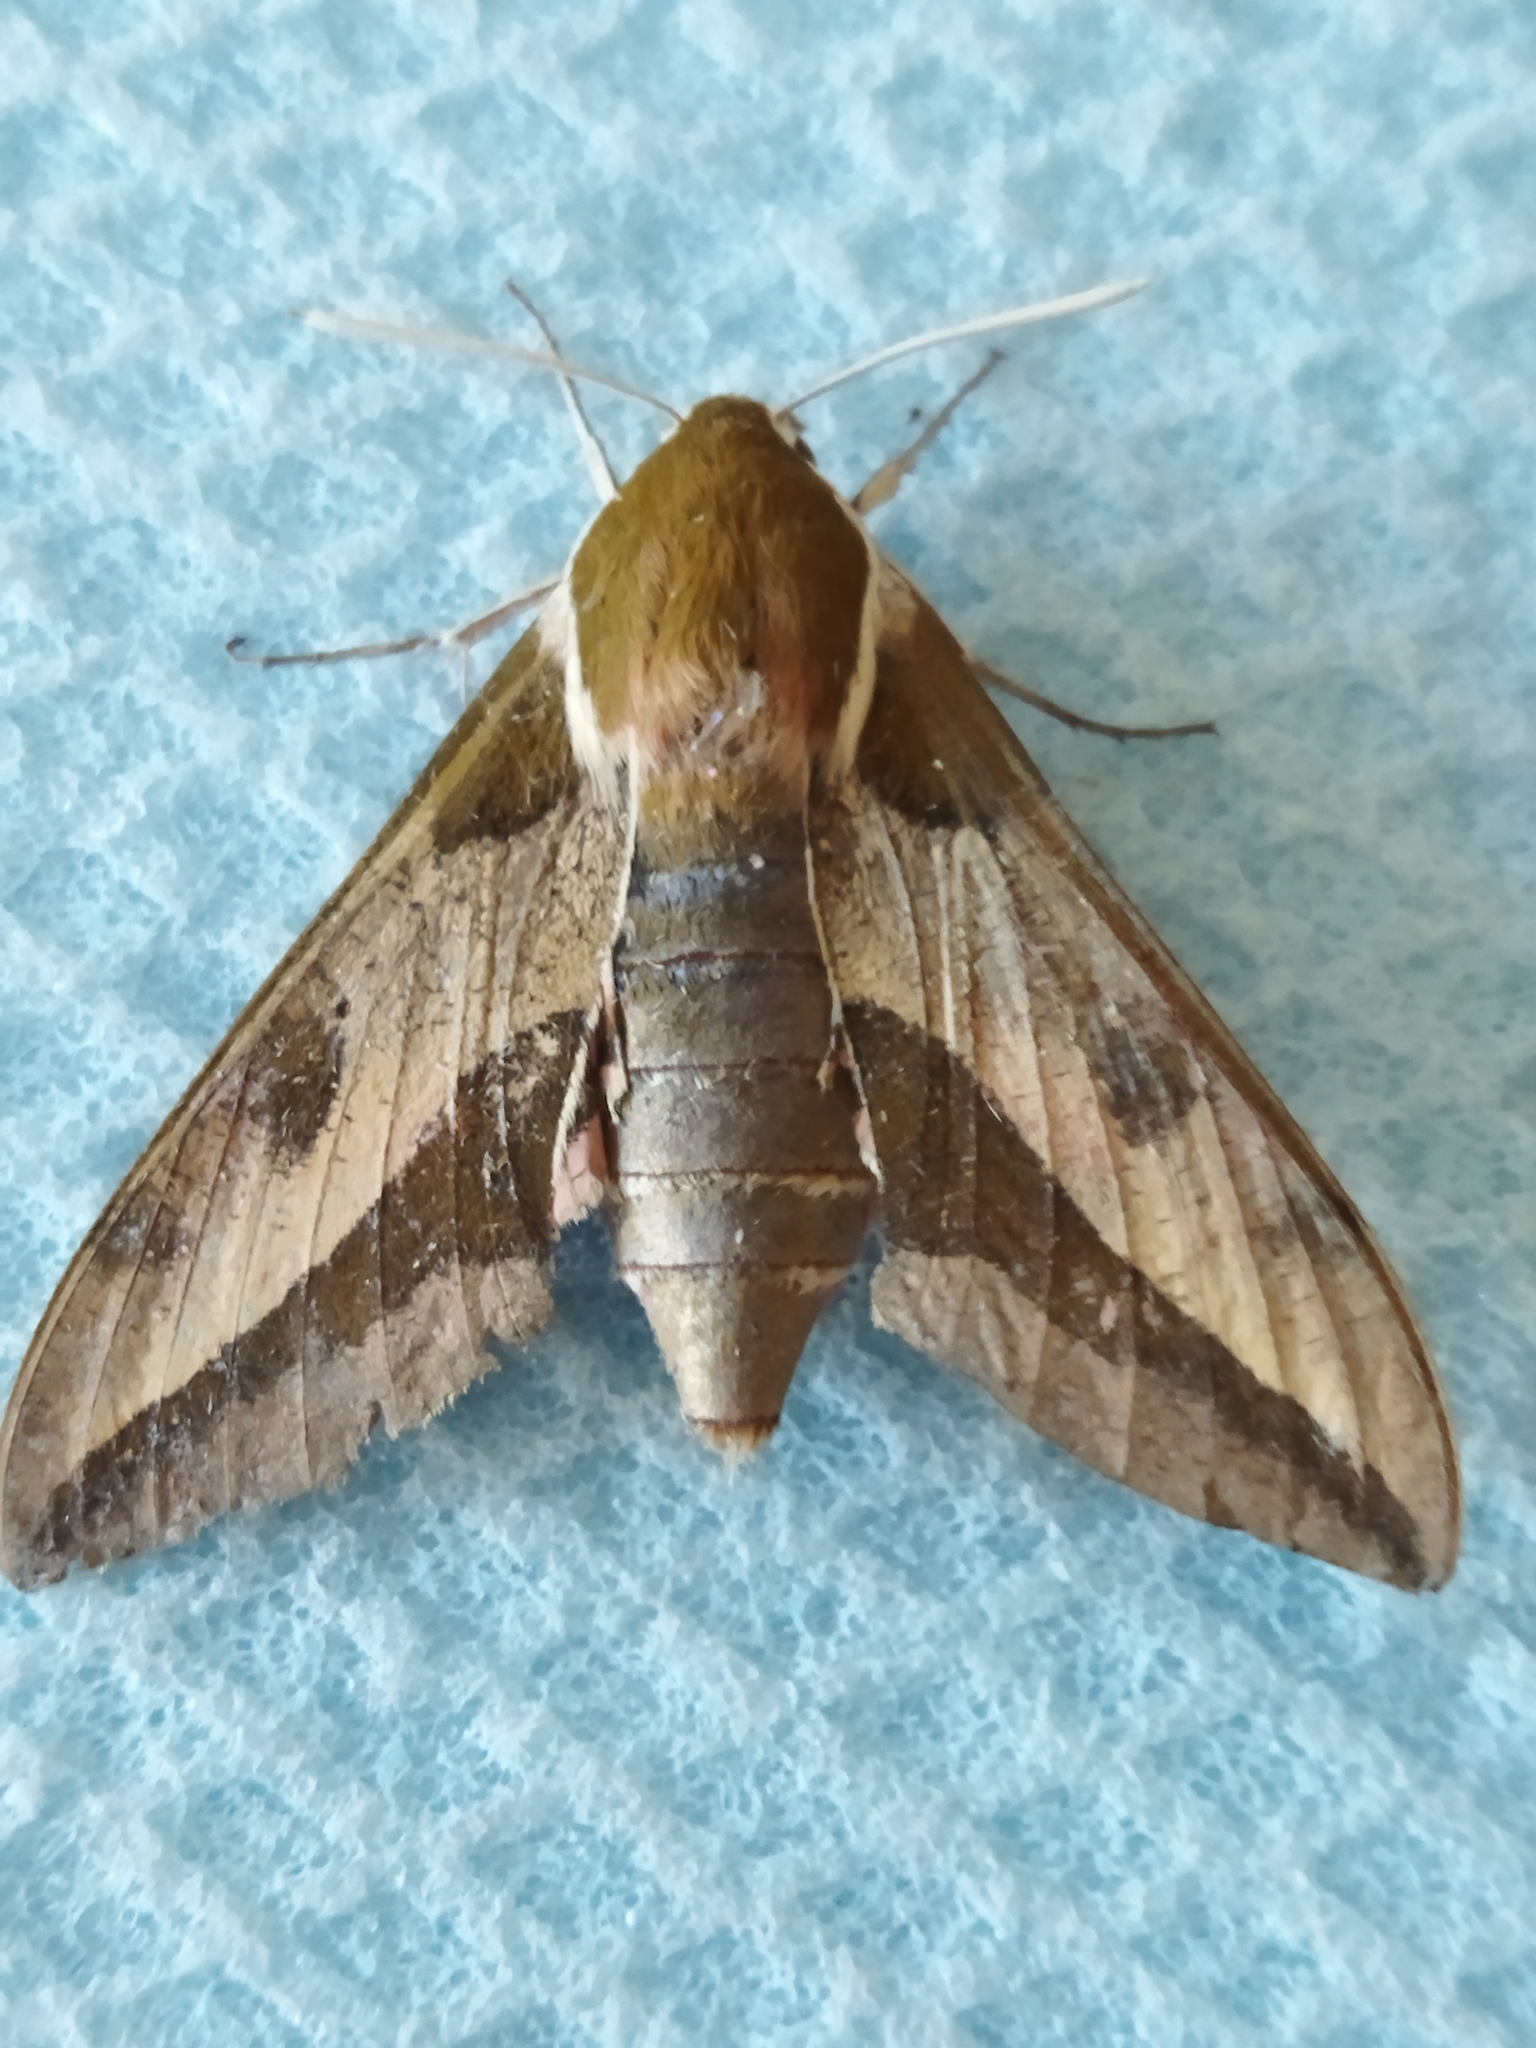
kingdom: Animalia
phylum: Arthropoda
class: Insecta
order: Lepidoptera
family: Sphingidae
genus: Hyles
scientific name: Hyles euphorbiae
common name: Spurge hawk-moth
